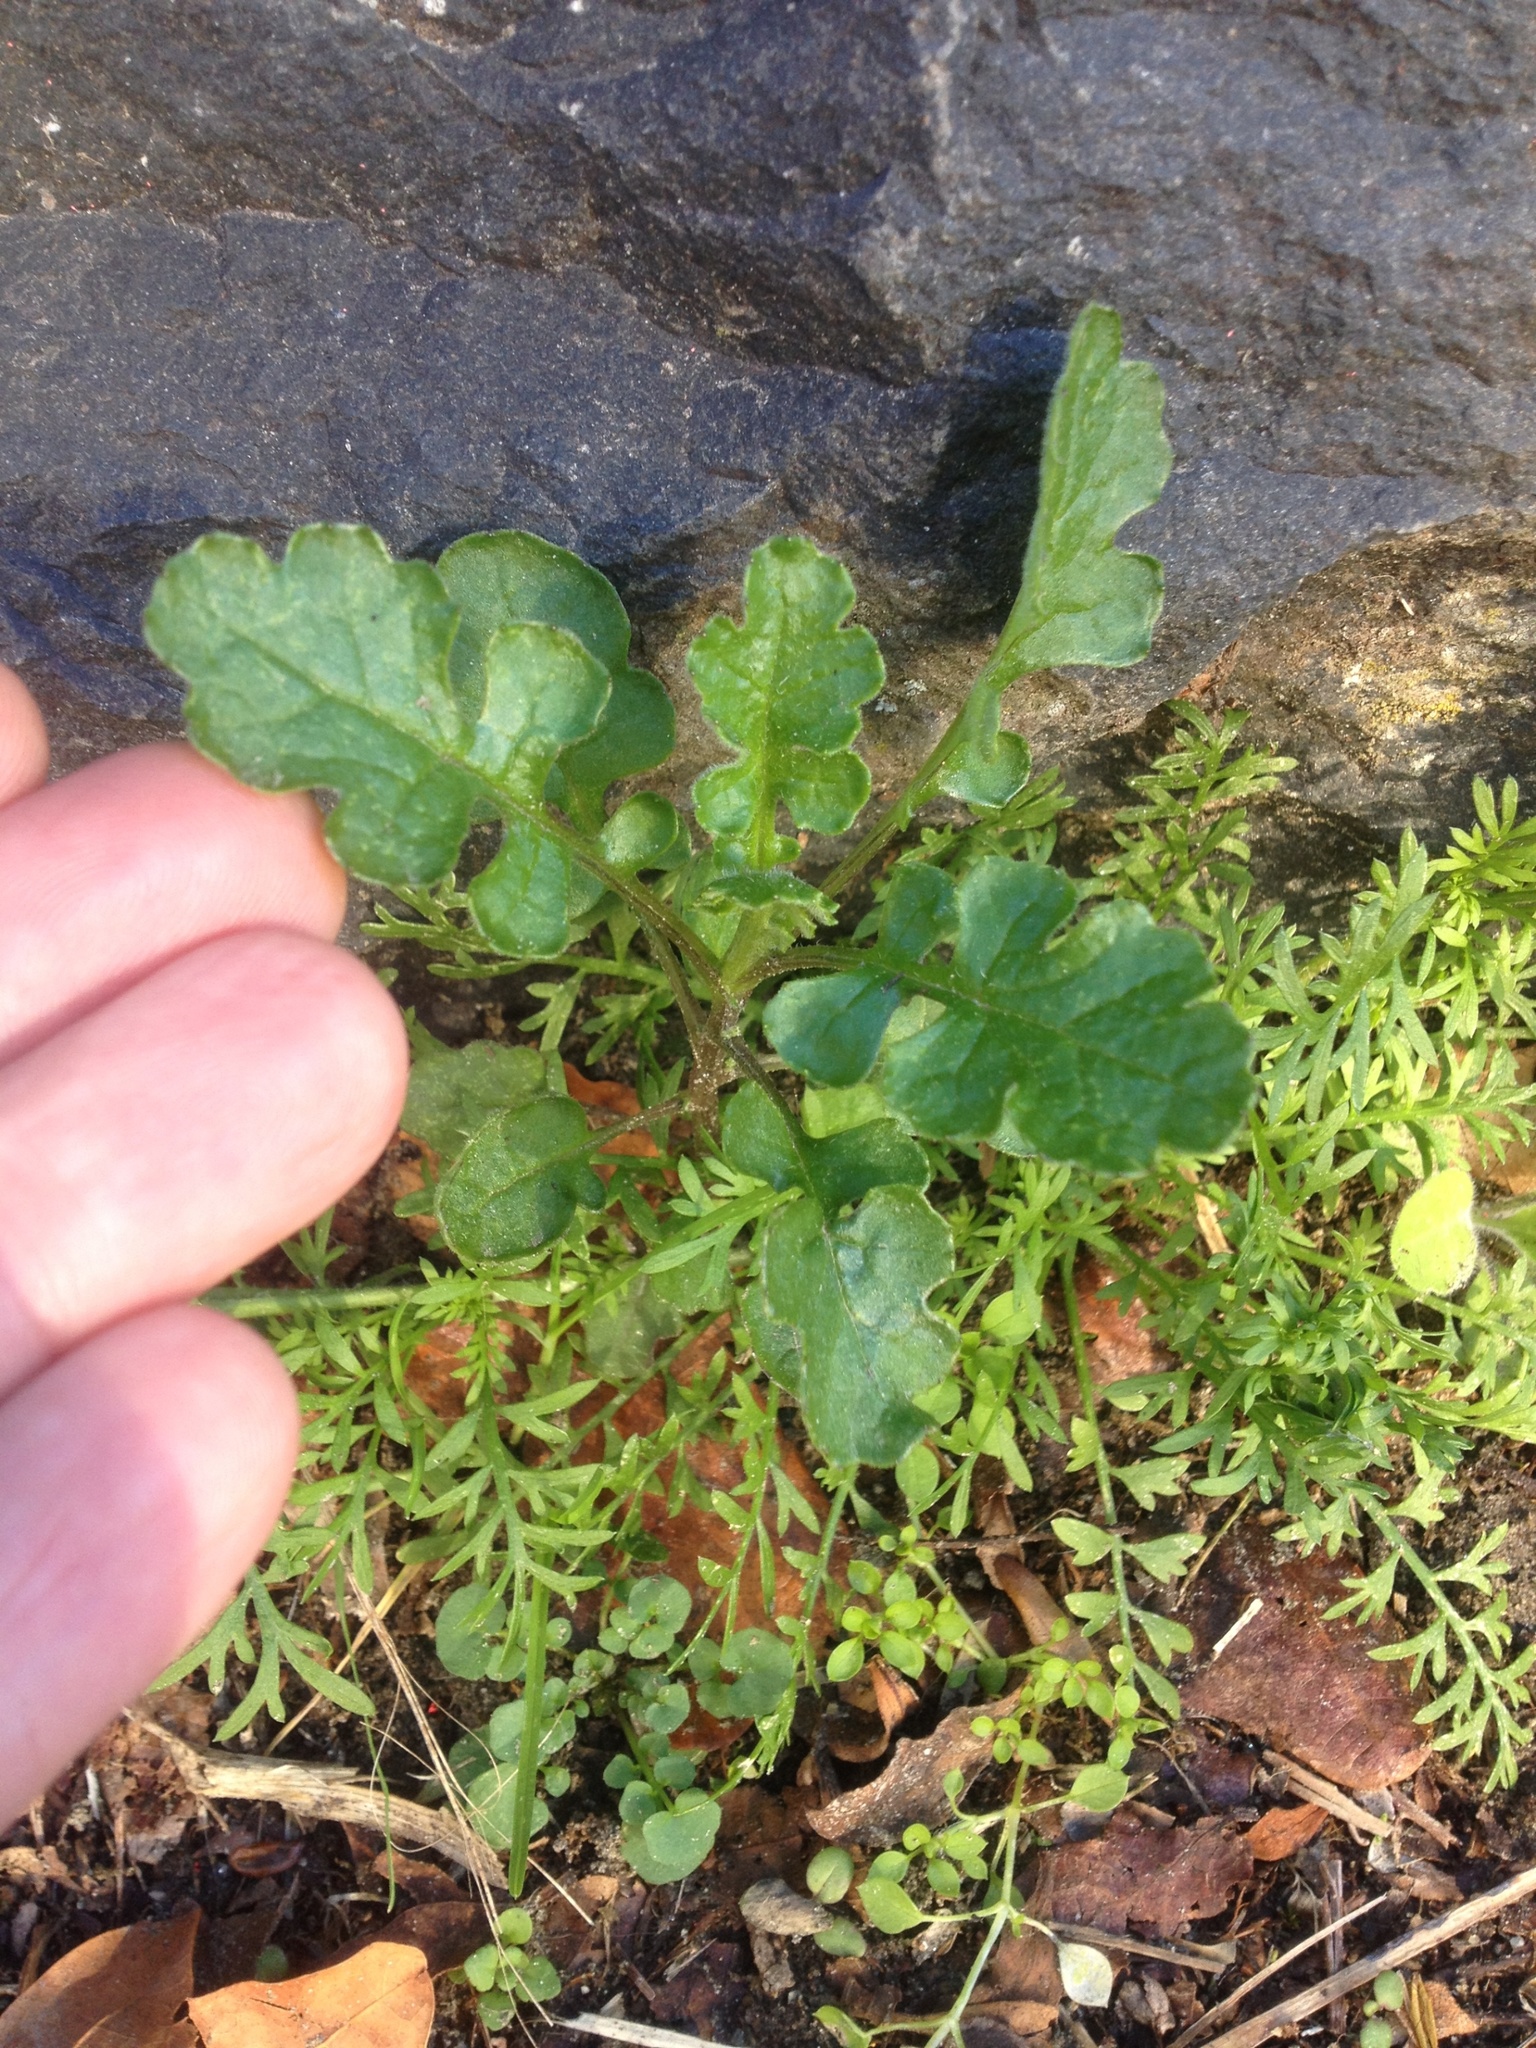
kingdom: Plantae
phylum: Tracheophyta
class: Magnoliopsida
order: Asterales
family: Asteraceae
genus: Senecio
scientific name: Senecio elegans
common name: Purple groundsel
